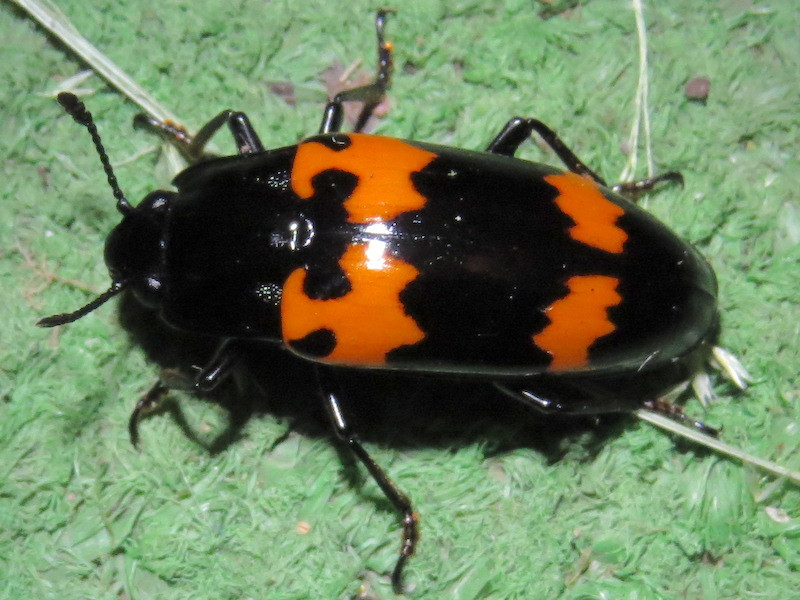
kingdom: Animalia
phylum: Arthropoda
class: Insecta
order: Coleoptera
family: Erotylidae
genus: Megalodacne
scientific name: Megalodacne heros
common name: Pleasing fungus beetle
